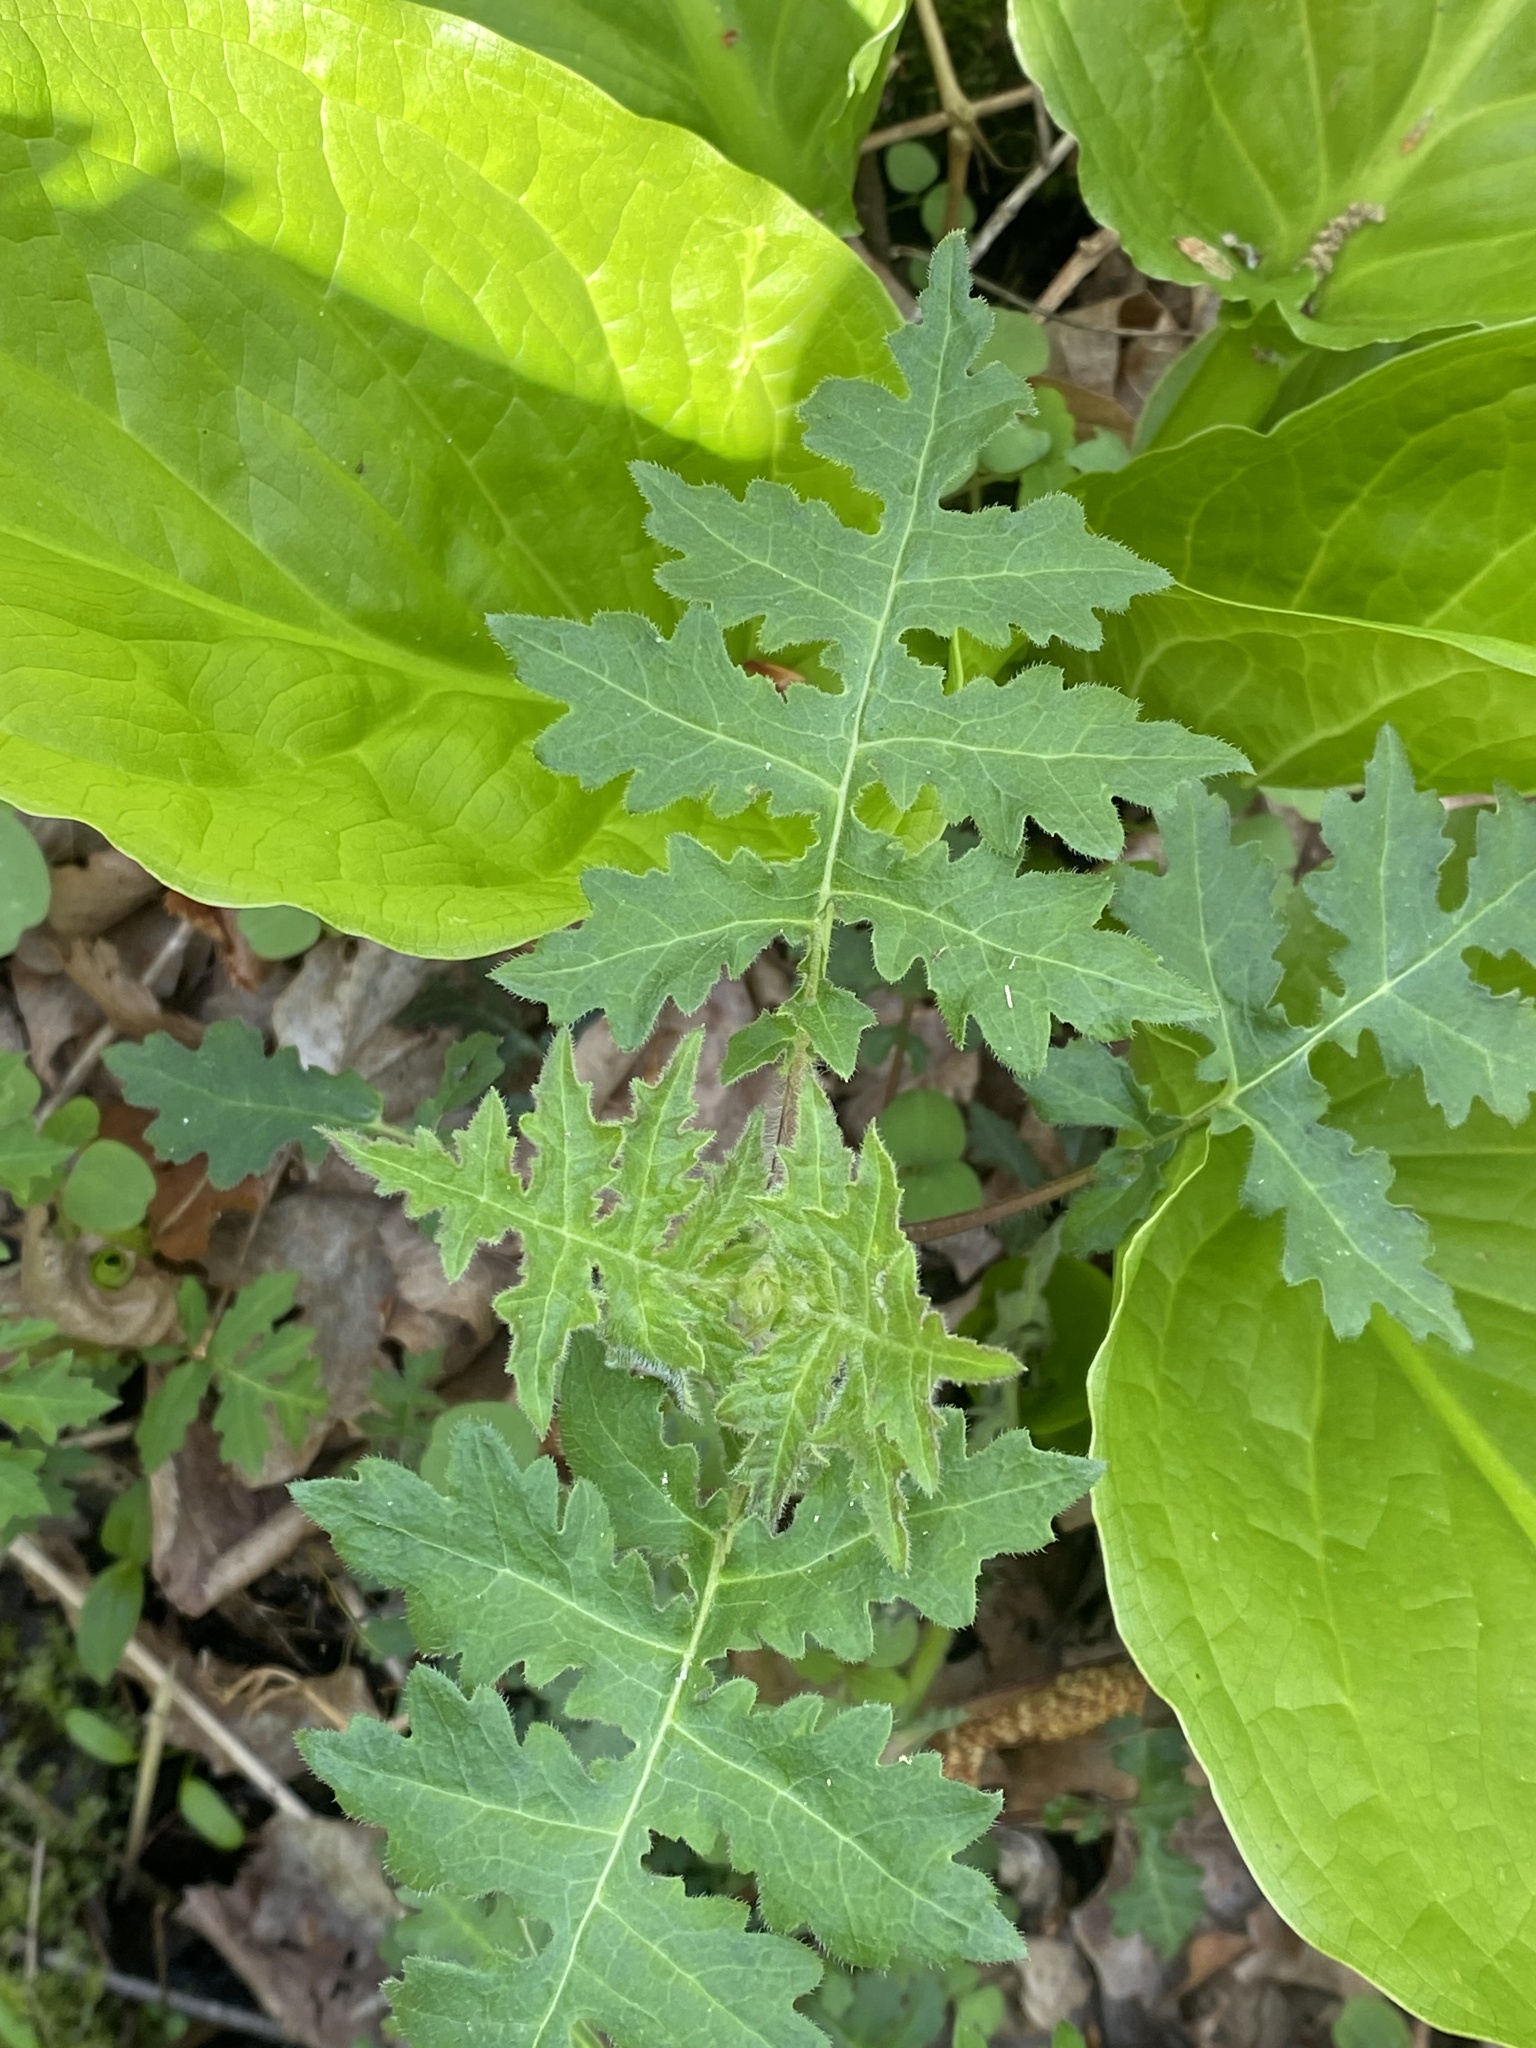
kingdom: Plantae
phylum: Tracheophyta
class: Magnoliopsida
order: Asterales
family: Asteraceae
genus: Polymnia
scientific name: Polymnia canadensis
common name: Pale-flowered leafcup
